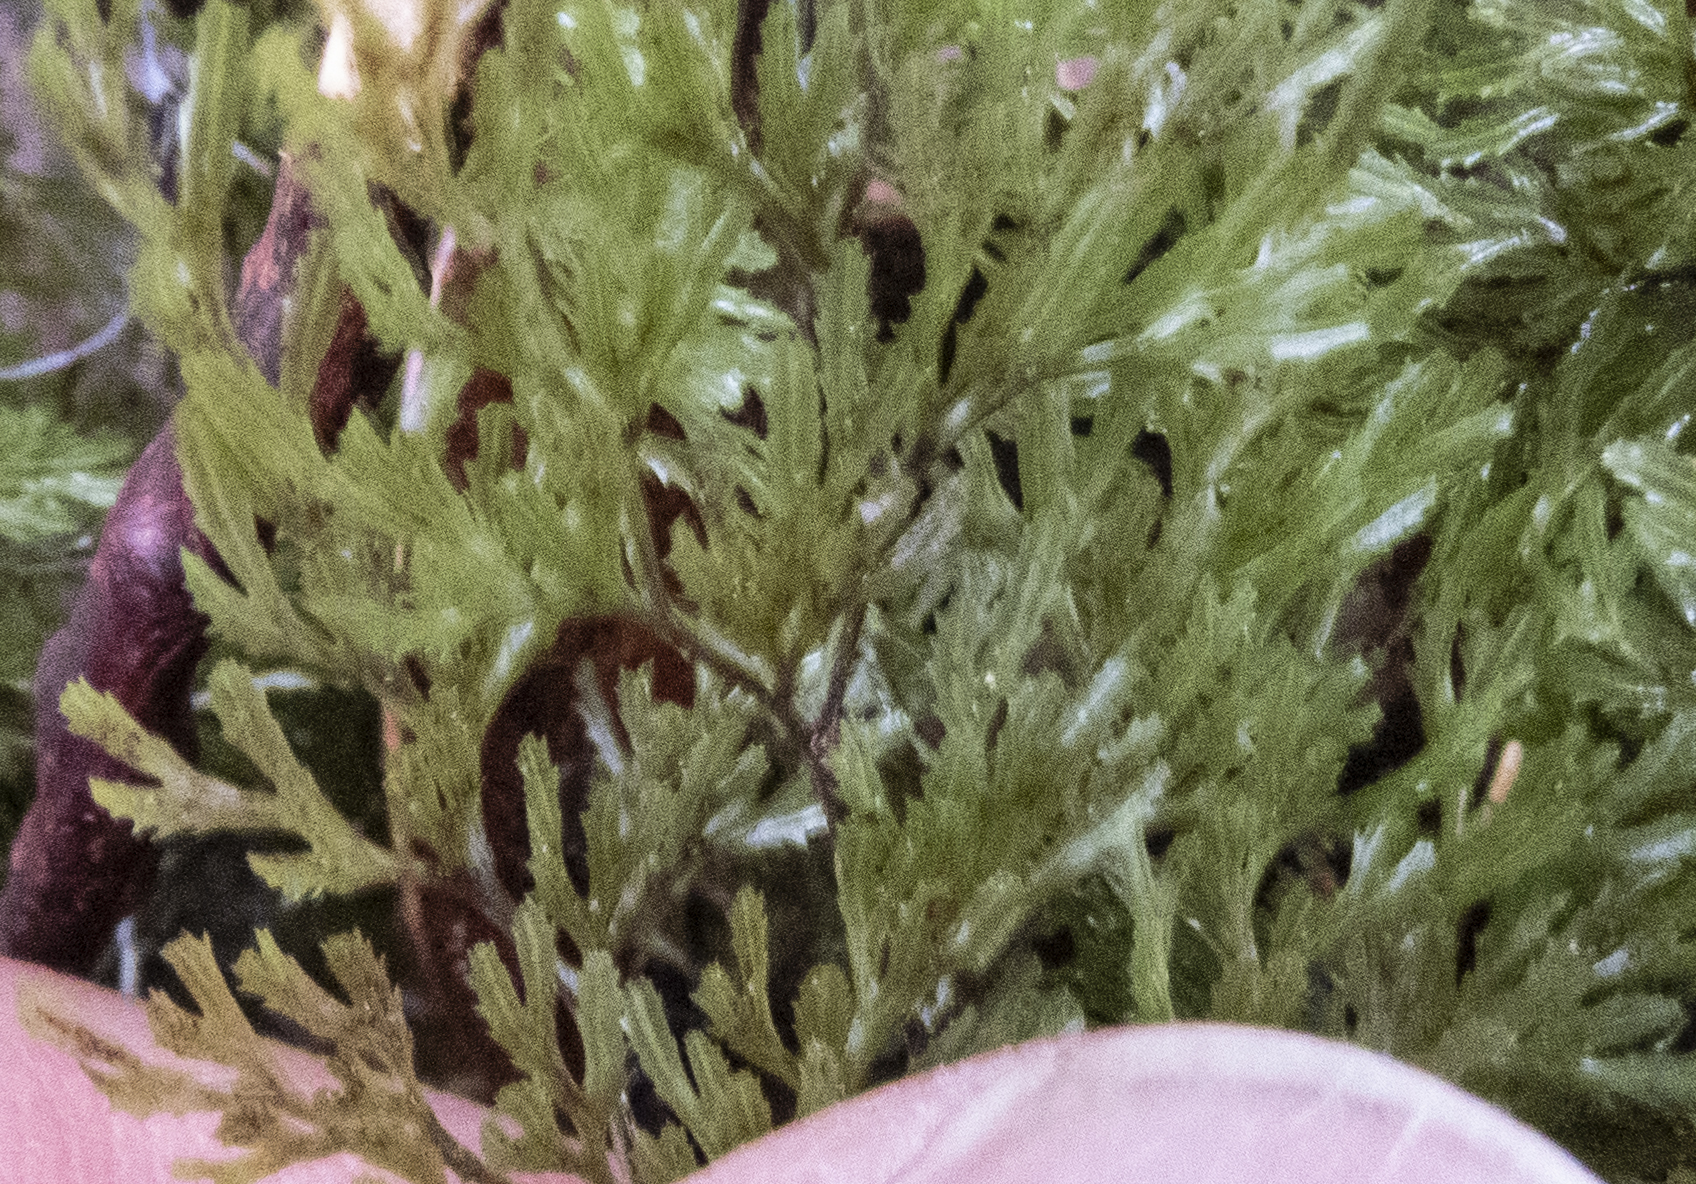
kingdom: Plantae
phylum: Tracheophyta
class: Polypodiopsida
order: Hymenophyllales
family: Hymenophyllaceae
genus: Hymenophyllum
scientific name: Hymenophyllum
